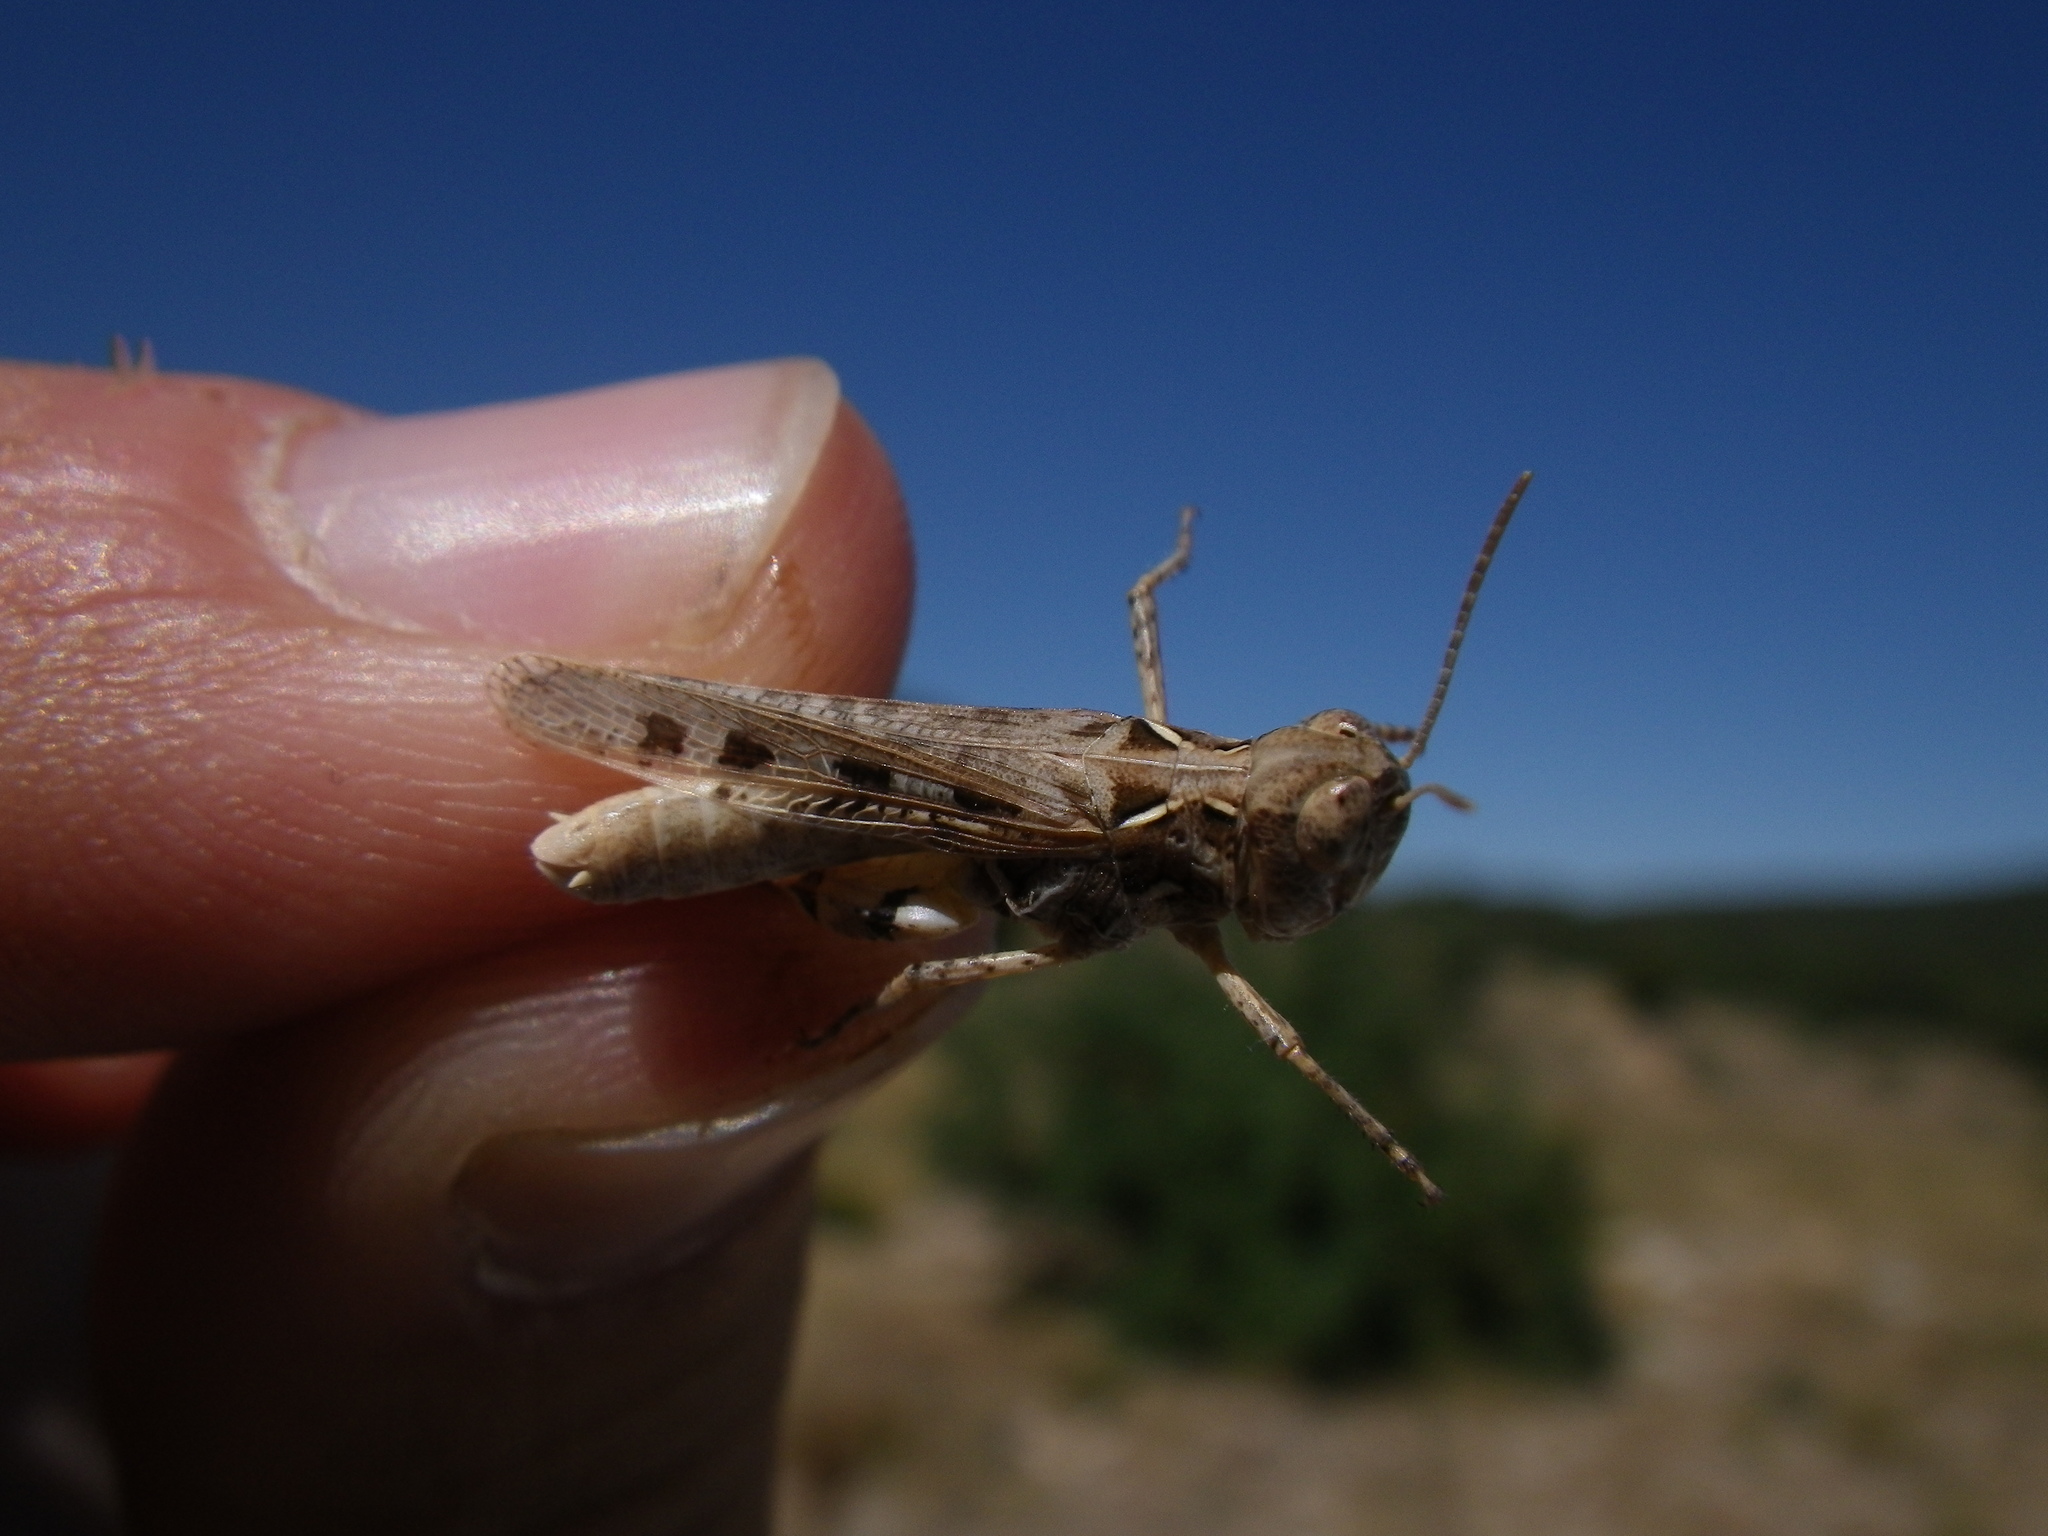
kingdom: Animalia
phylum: Arthropoda
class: Insecta
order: Orthoptera
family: Acrididae
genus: Dociostaurus
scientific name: Dociostaurus jagoi
